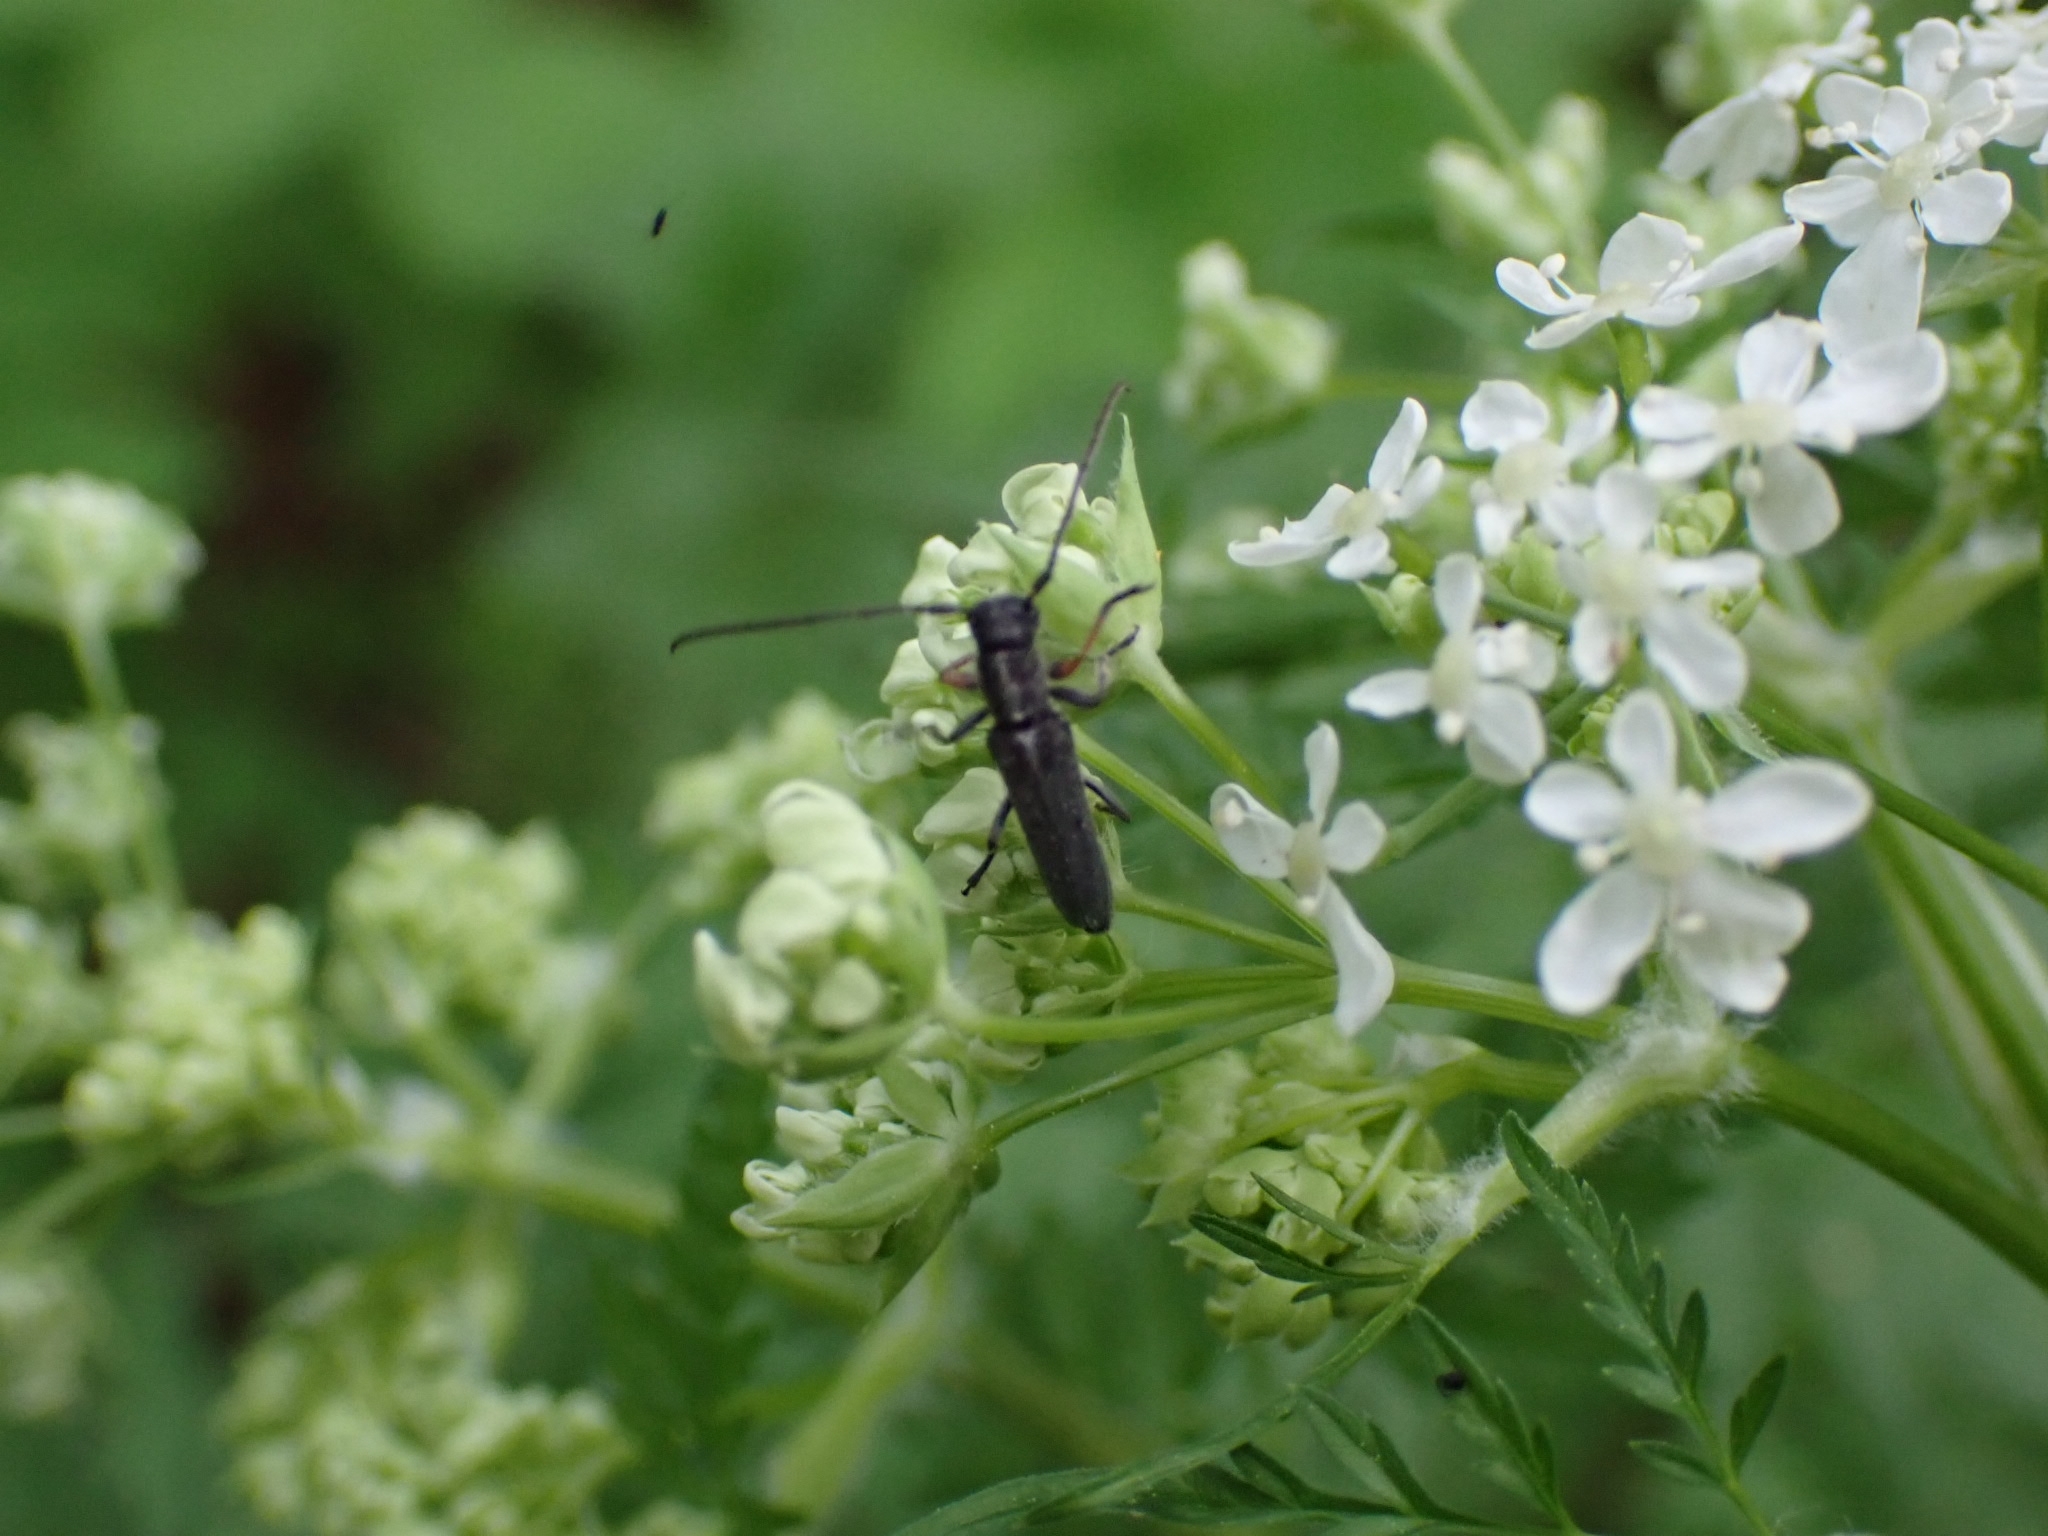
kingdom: Animalia
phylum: Arthropoda
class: Insecta
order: Coleoptera
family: Cerambycidae
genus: Phytoecia
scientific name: Phytoecia cylindrica
